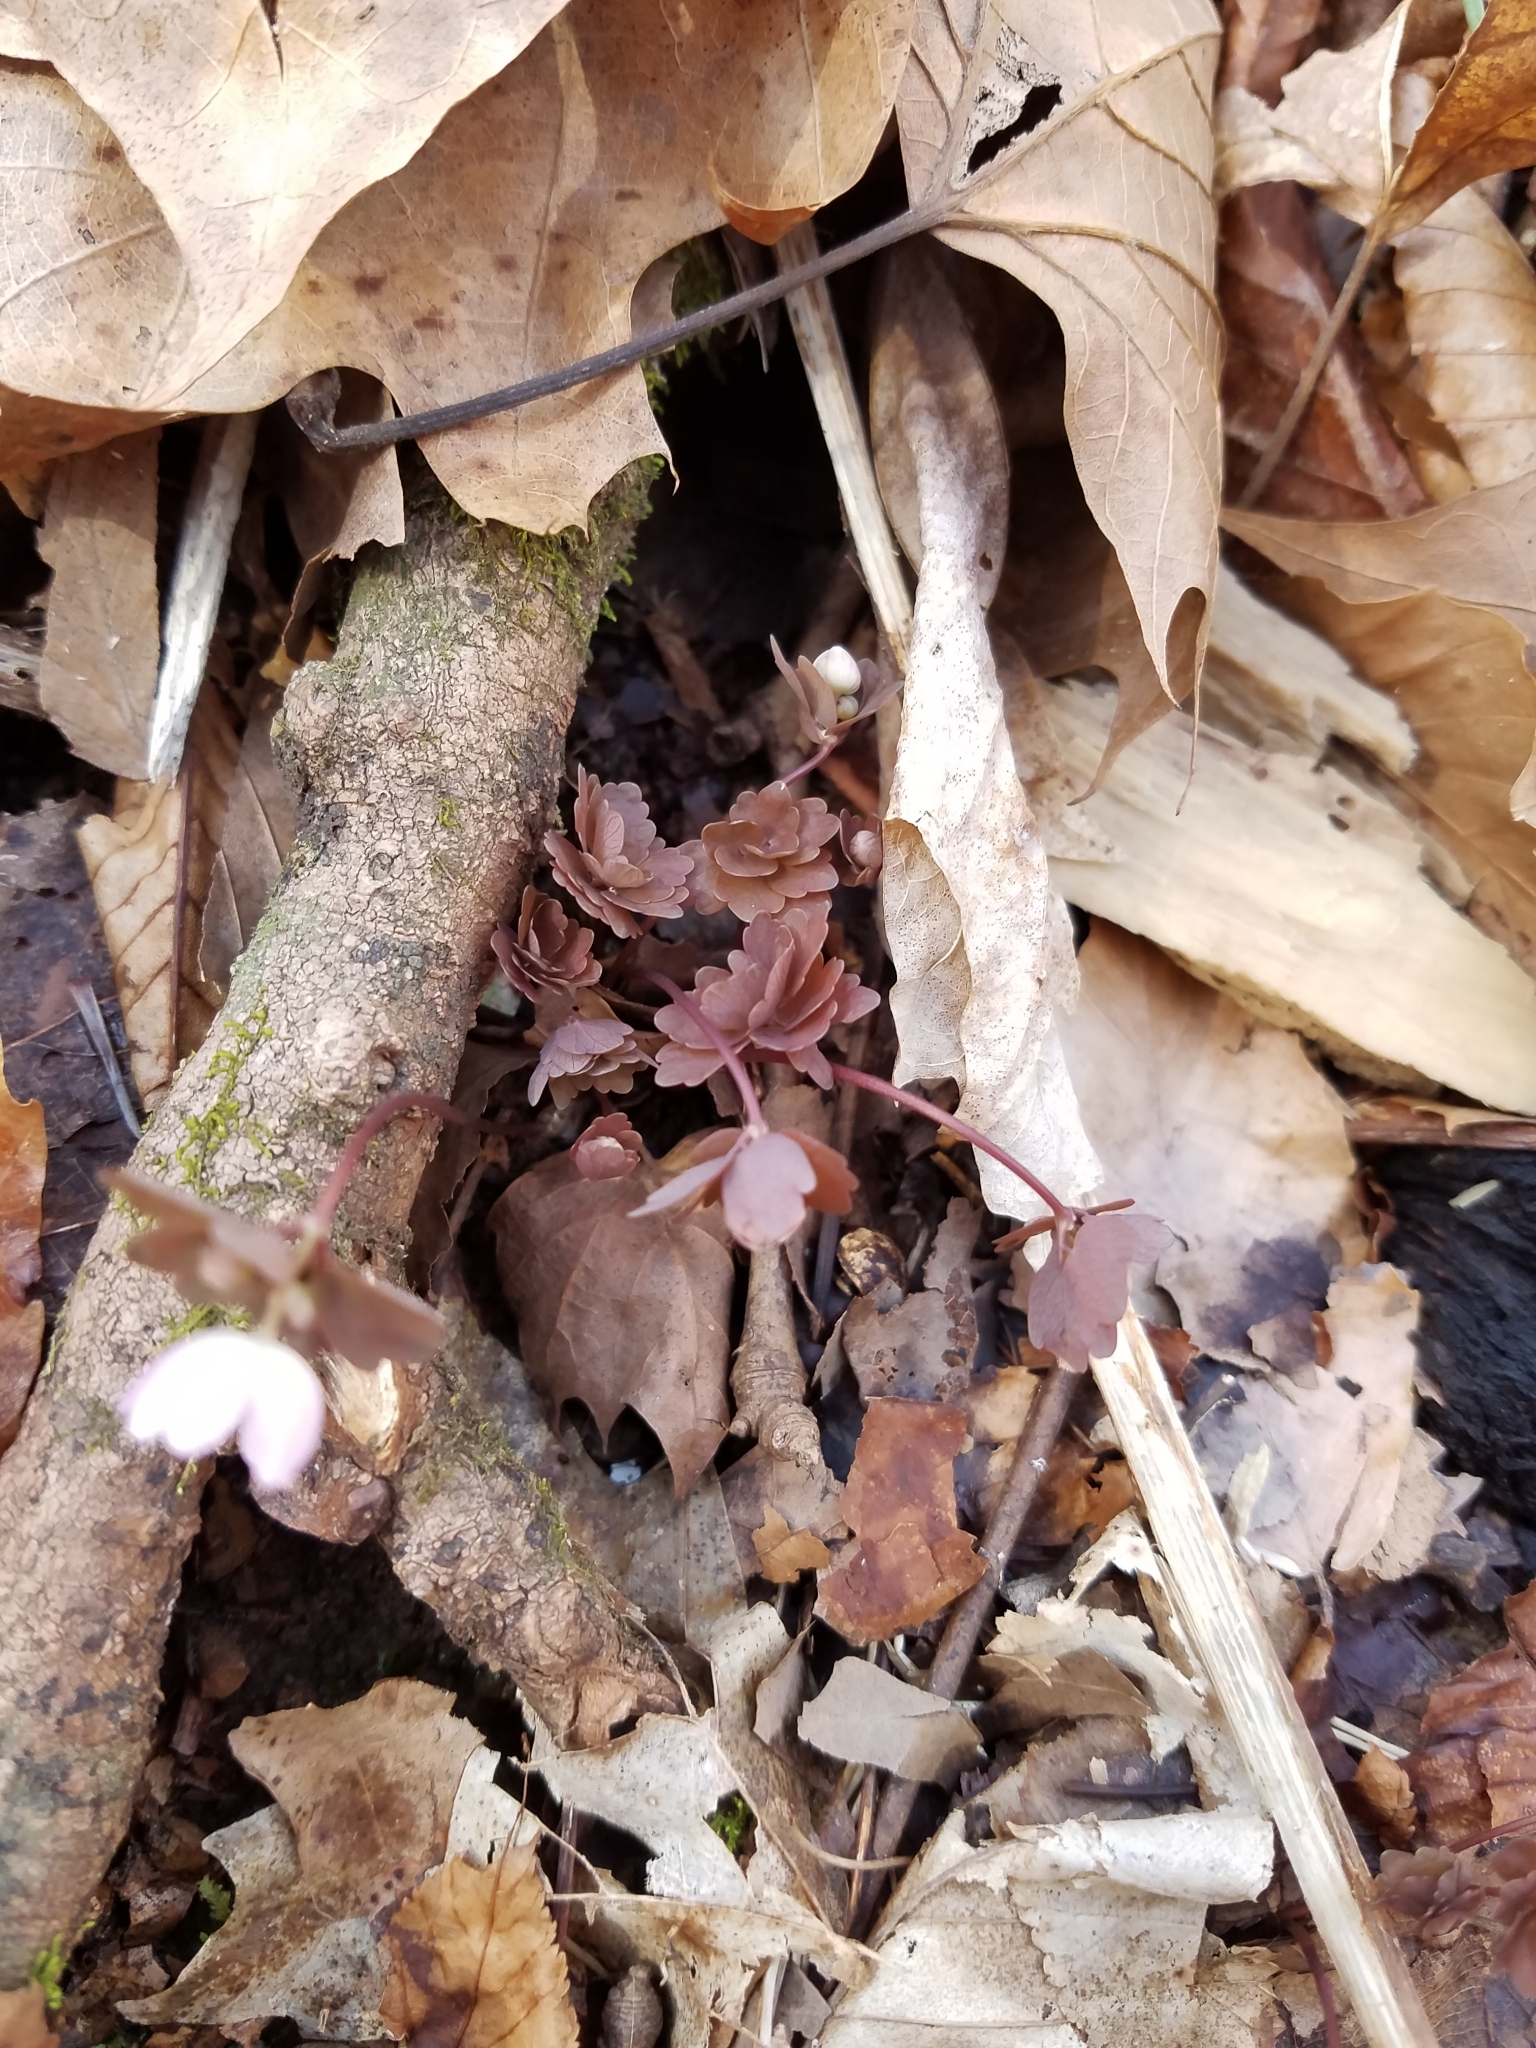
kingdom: Plantae
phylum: Tracheophyta
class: Magnoliopsida
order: Ranunculales
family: Ranunculaceae
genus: Thalictrum
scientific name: Thalictrum thalictroides
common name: Rue-anemone
